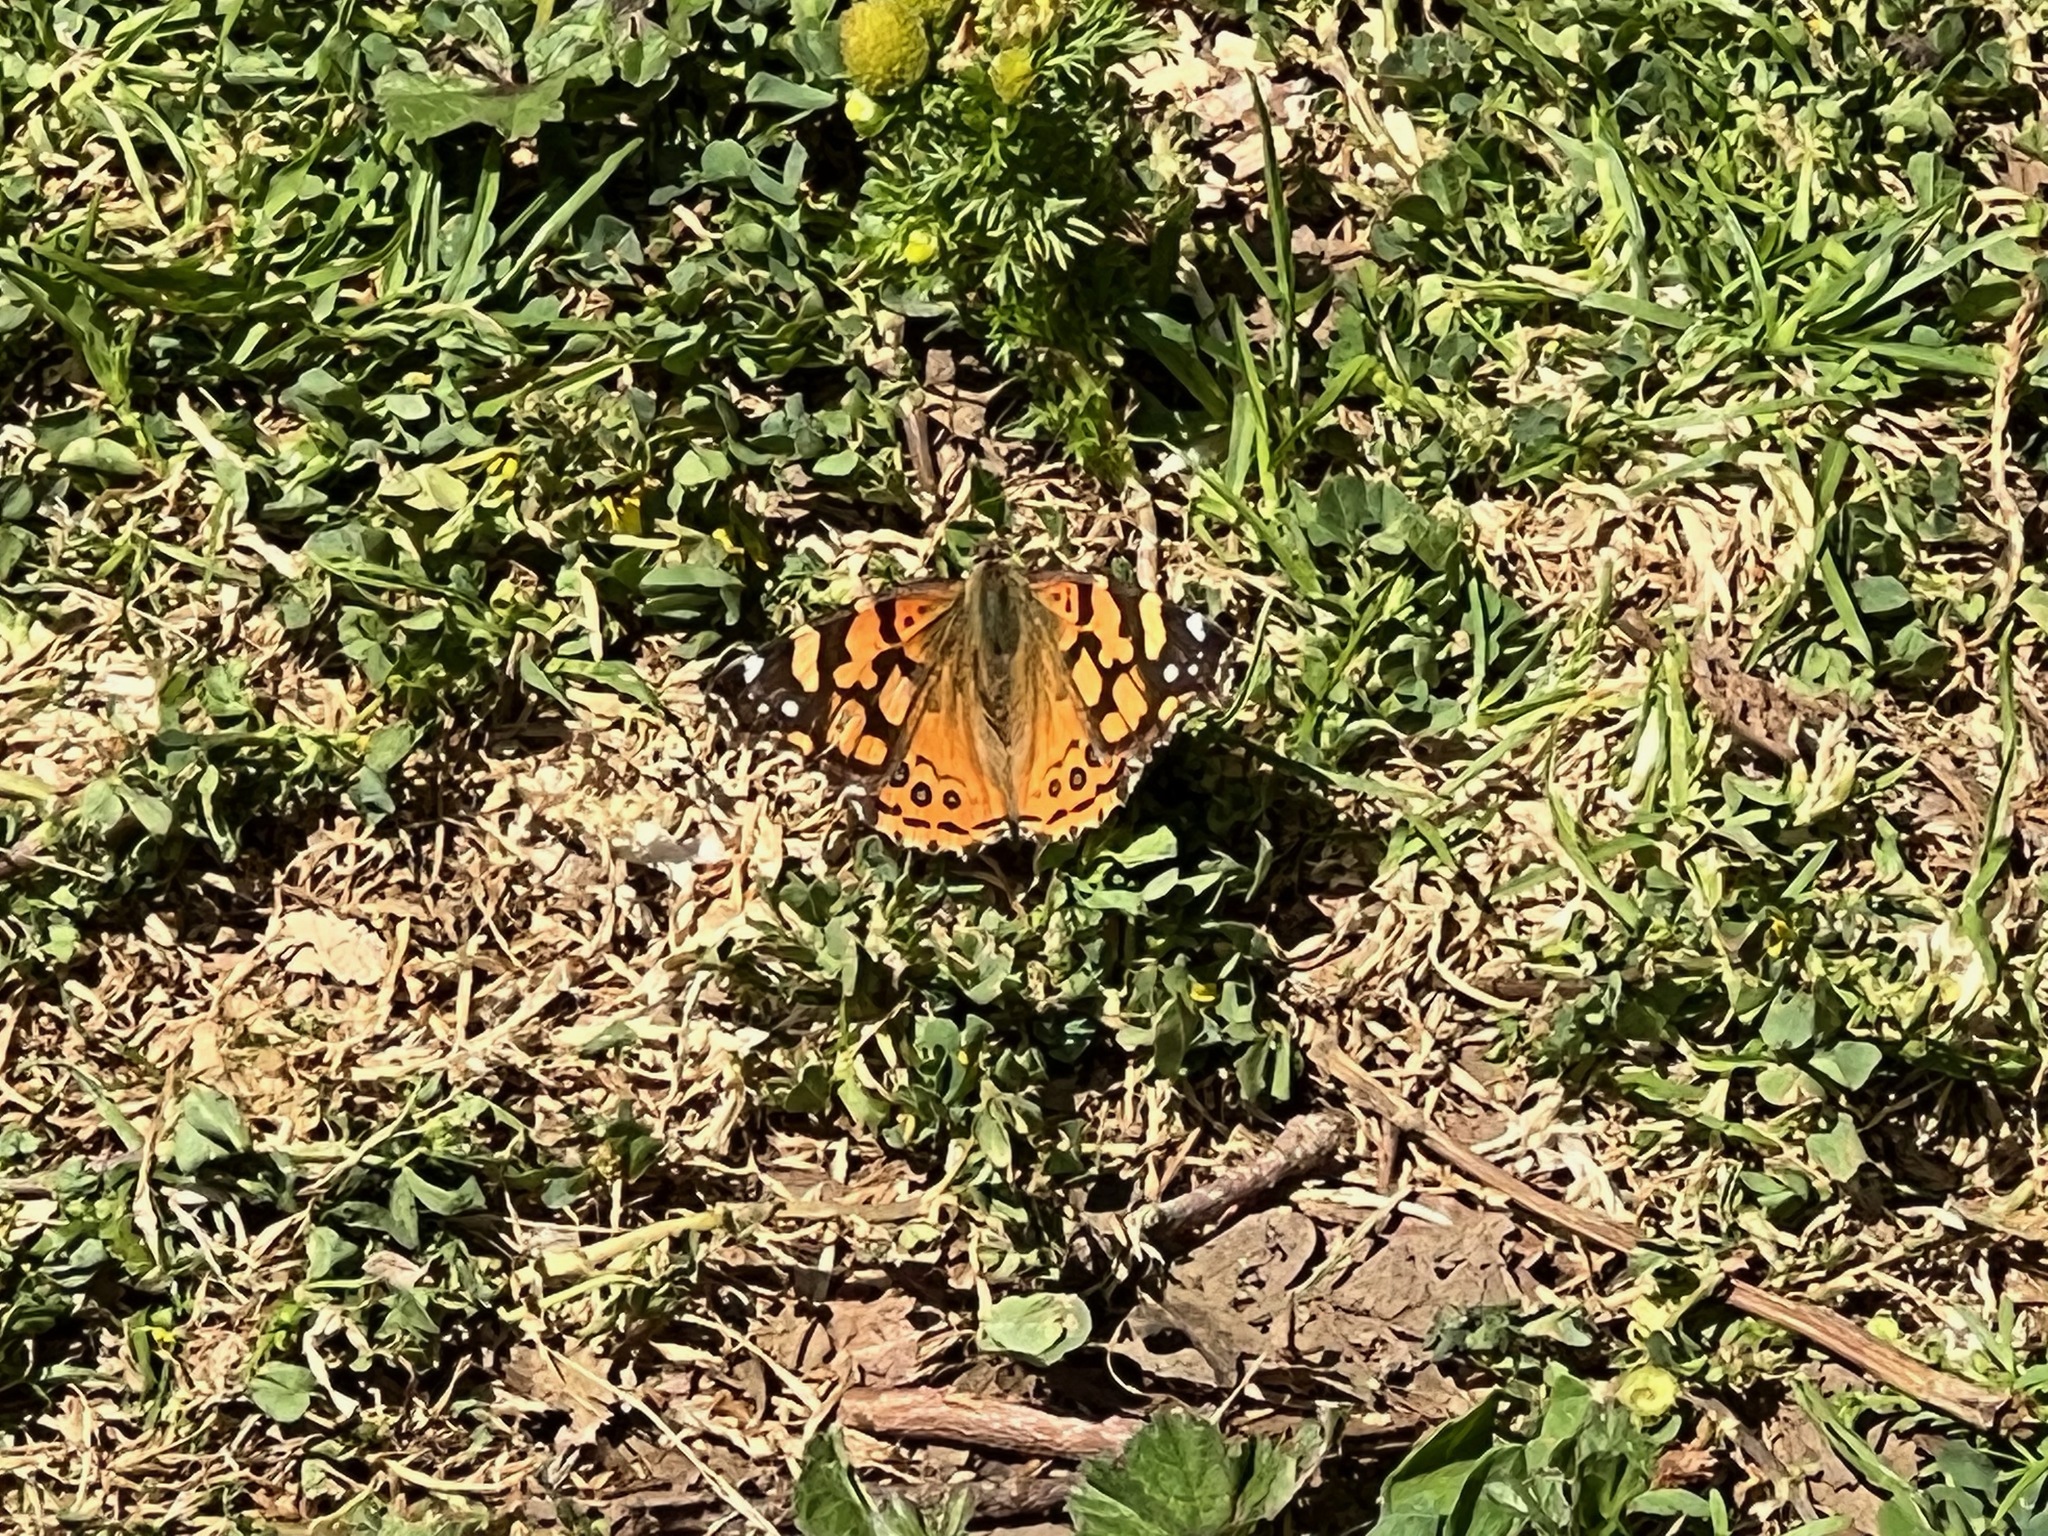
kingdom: Animalia
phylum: Arthropoda
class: Insecta
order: Lepidoptera
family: Nymphalidae
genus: Vanessa
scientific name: Vanessa annabella
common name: West coast lady
